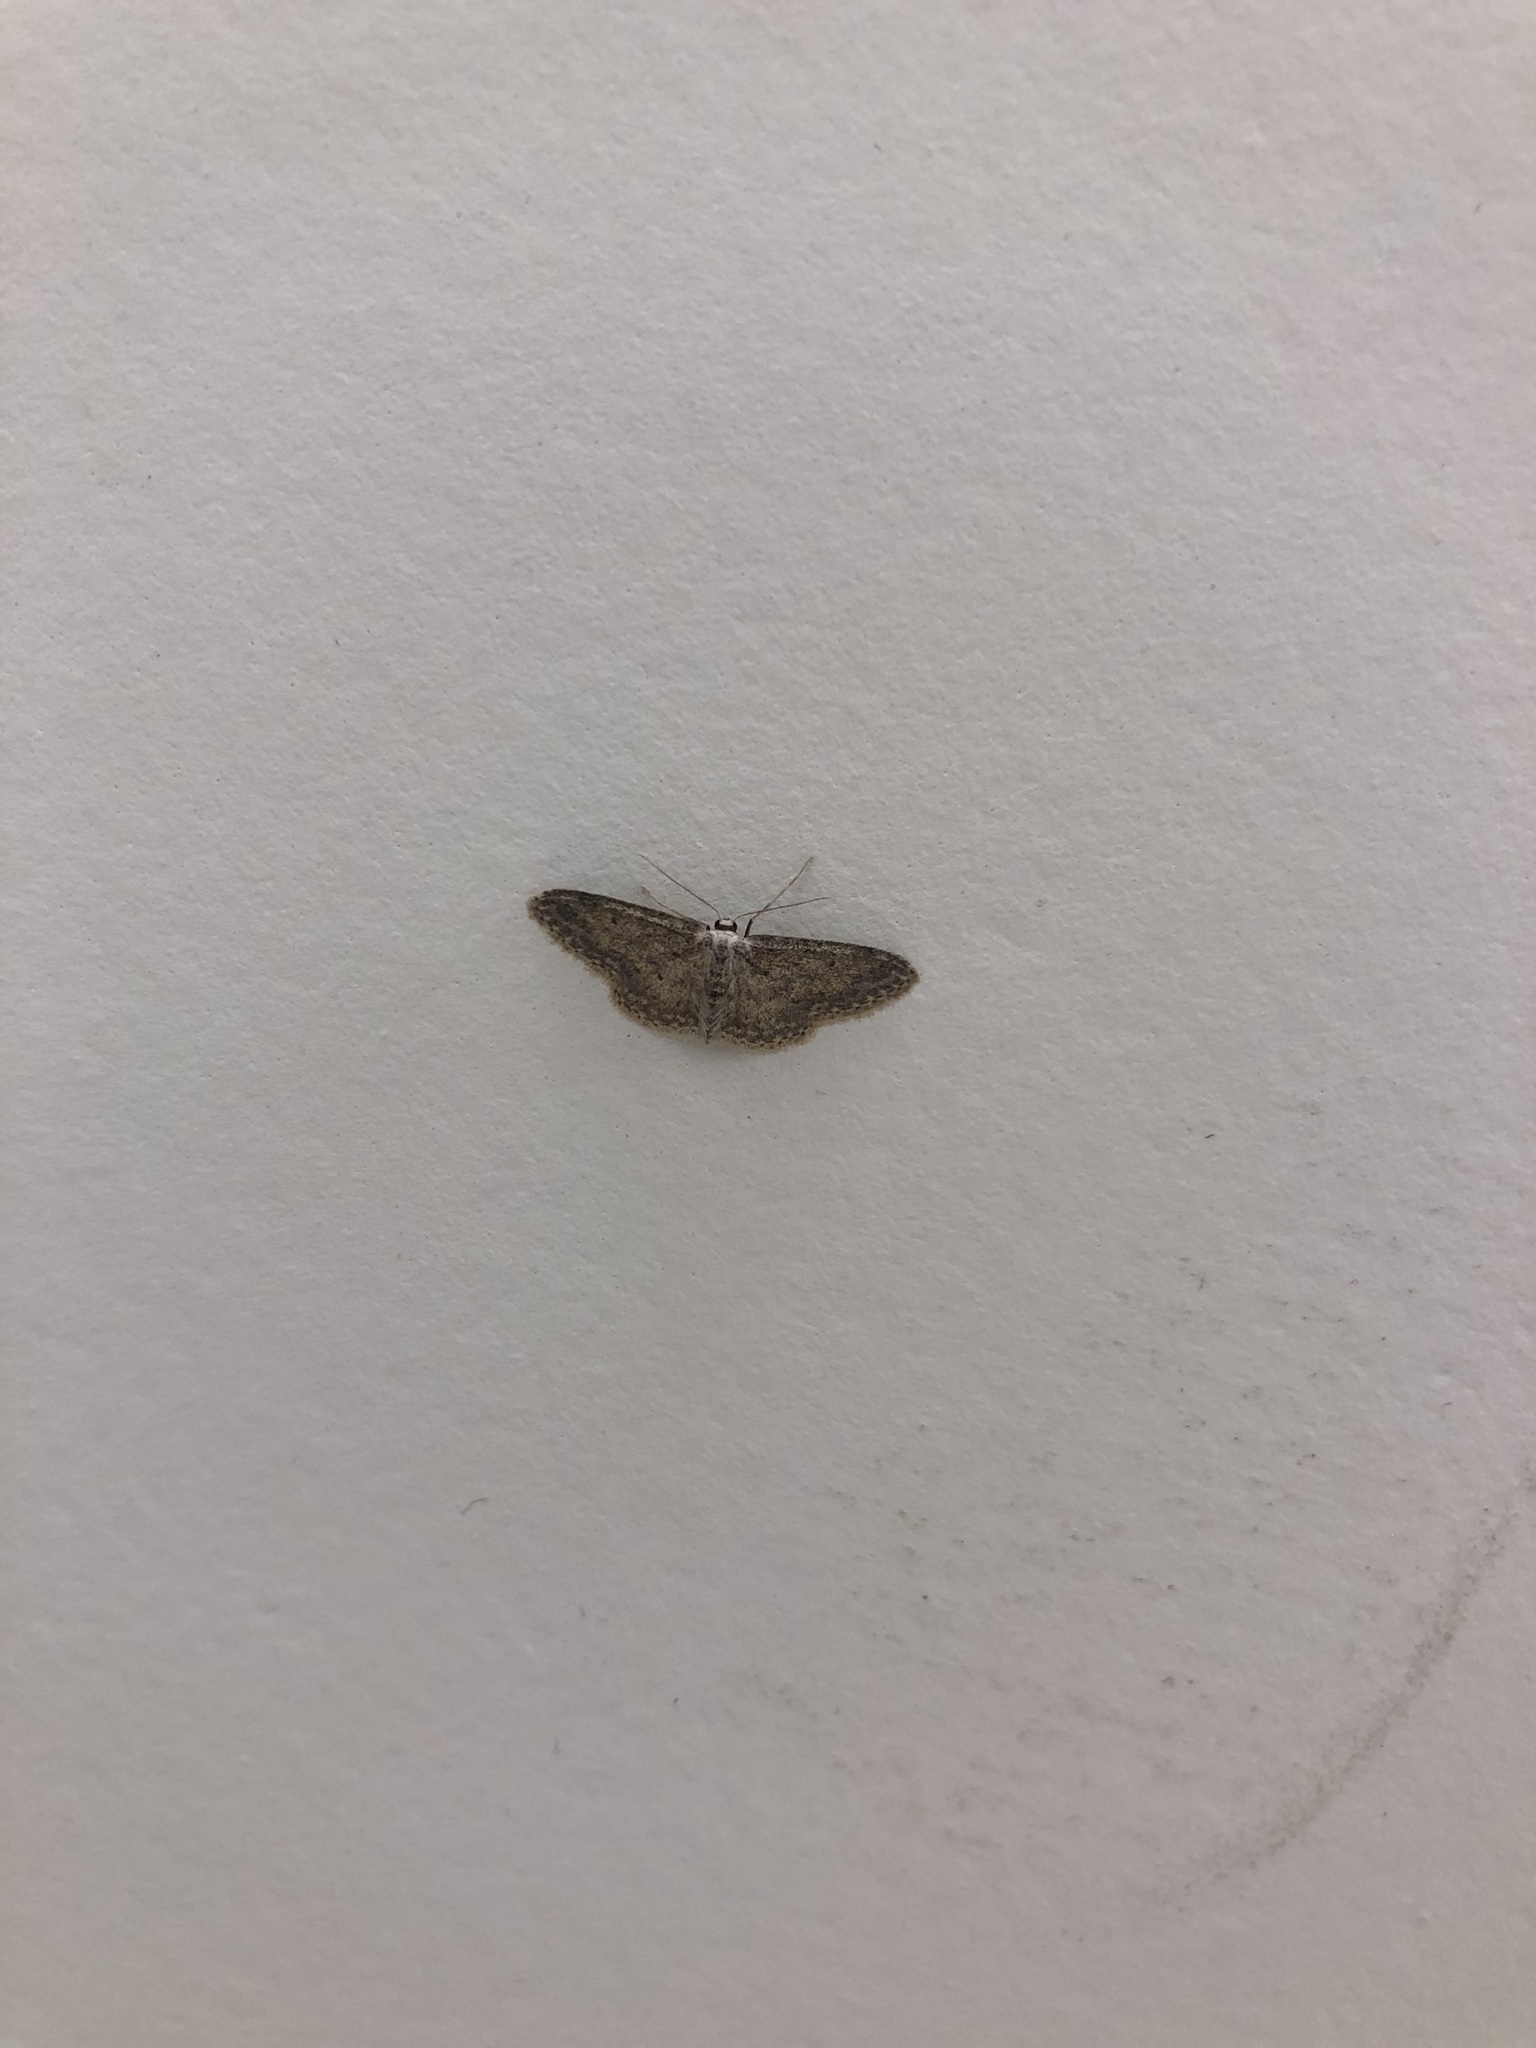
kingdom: Animalia
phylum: Arthropoda
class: Insecta
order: Lepidoptera
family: Geometridae
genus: Idaea
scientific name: Idaea seriata
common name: Small dusty wave
